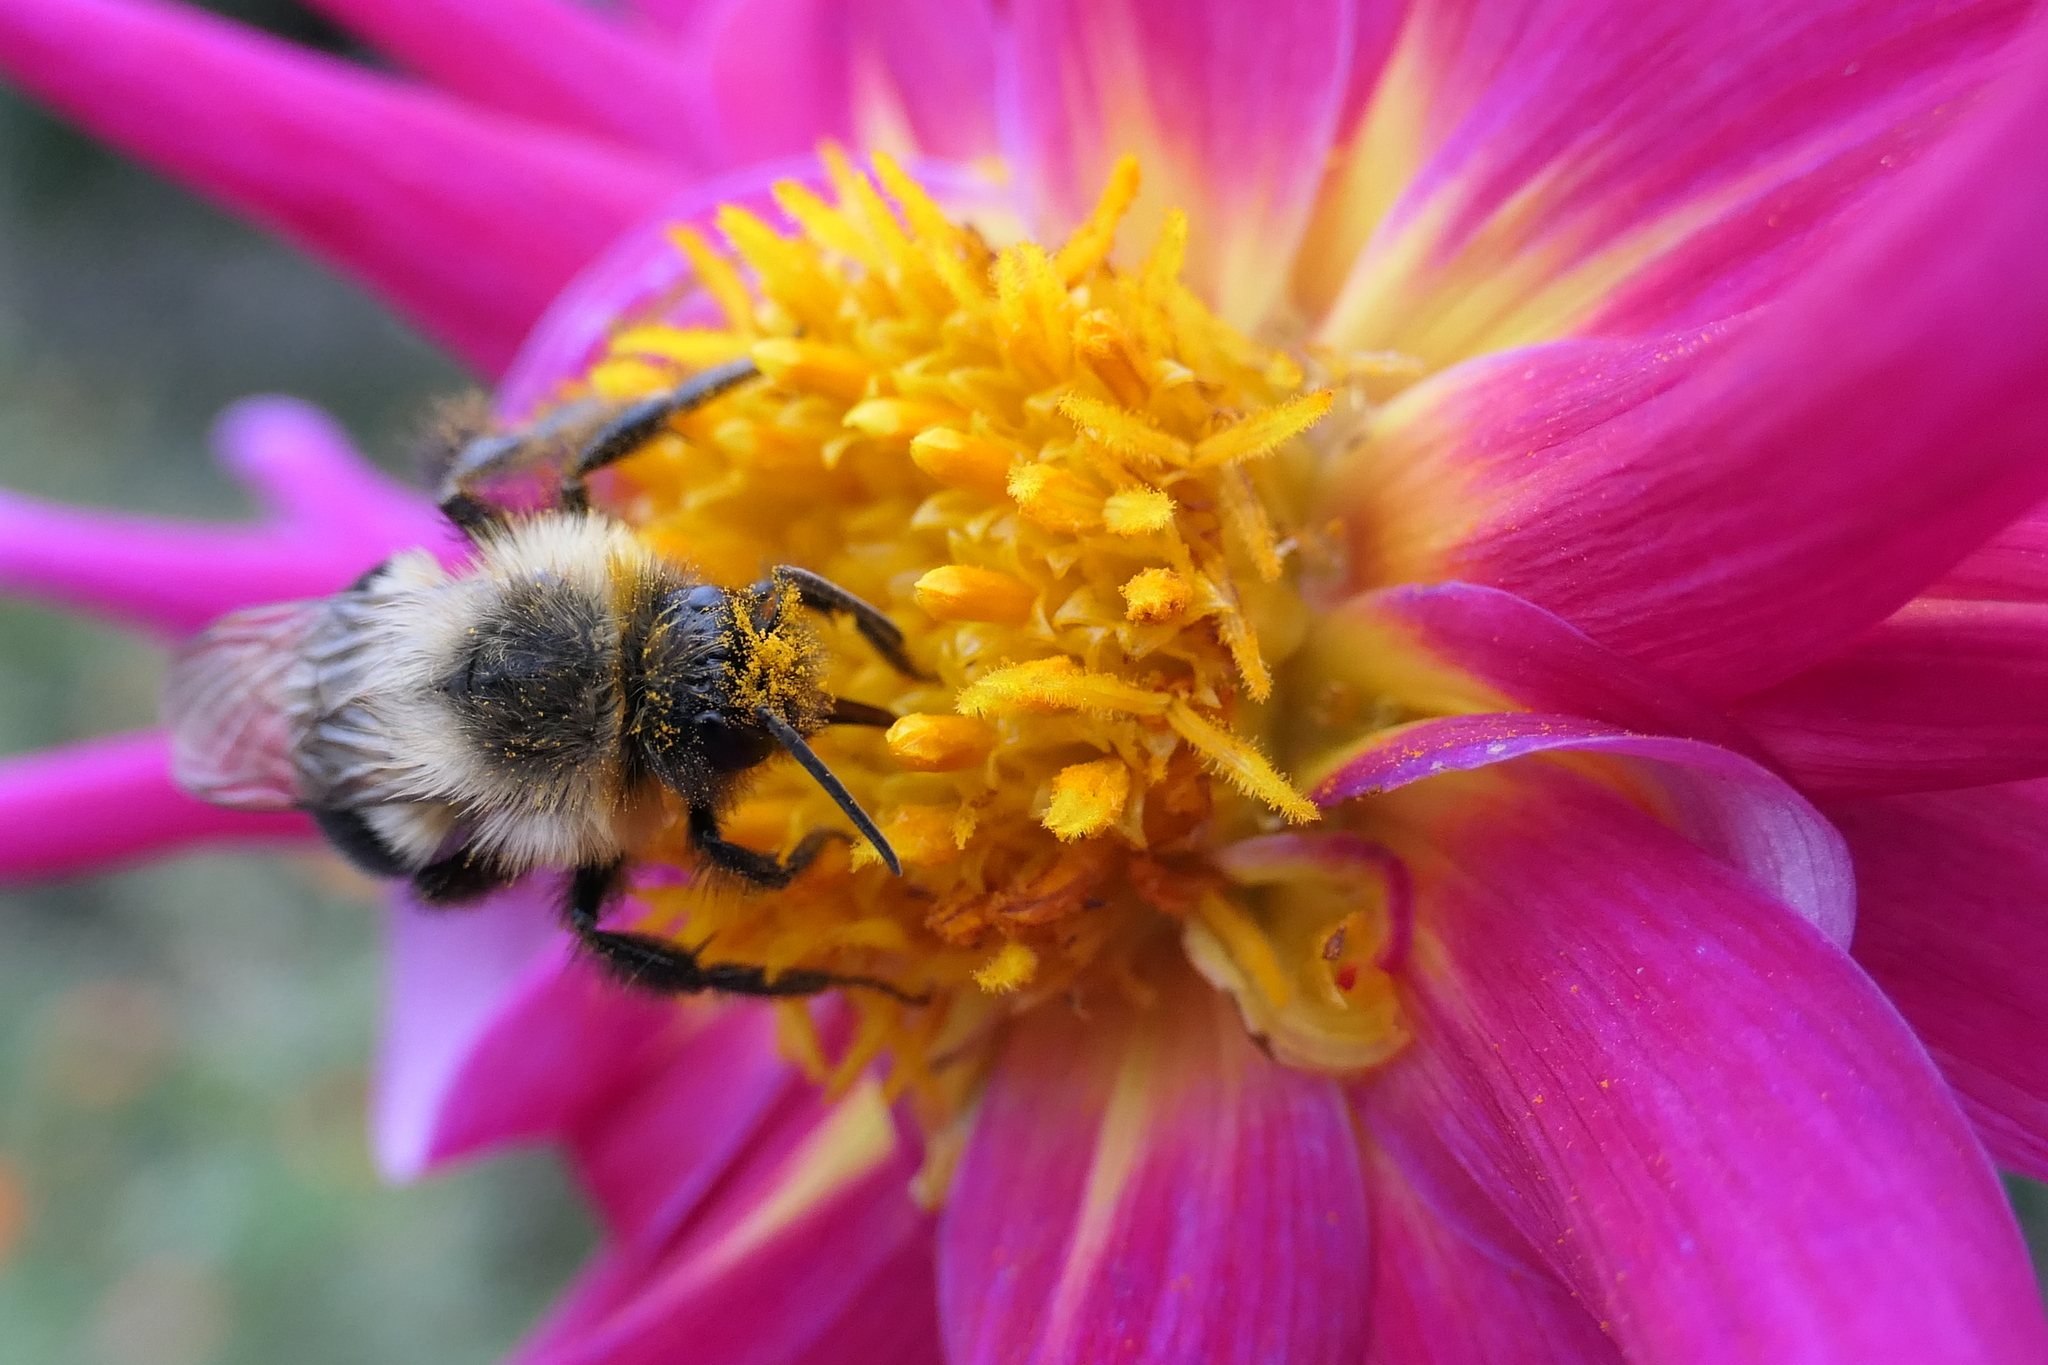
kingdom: Animalia
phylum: Arthropoda
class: Insecta
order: Hymenoptera
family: Apidae
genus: Bombus
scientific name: Bombus impatiens
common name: Common eastern bumble bee
